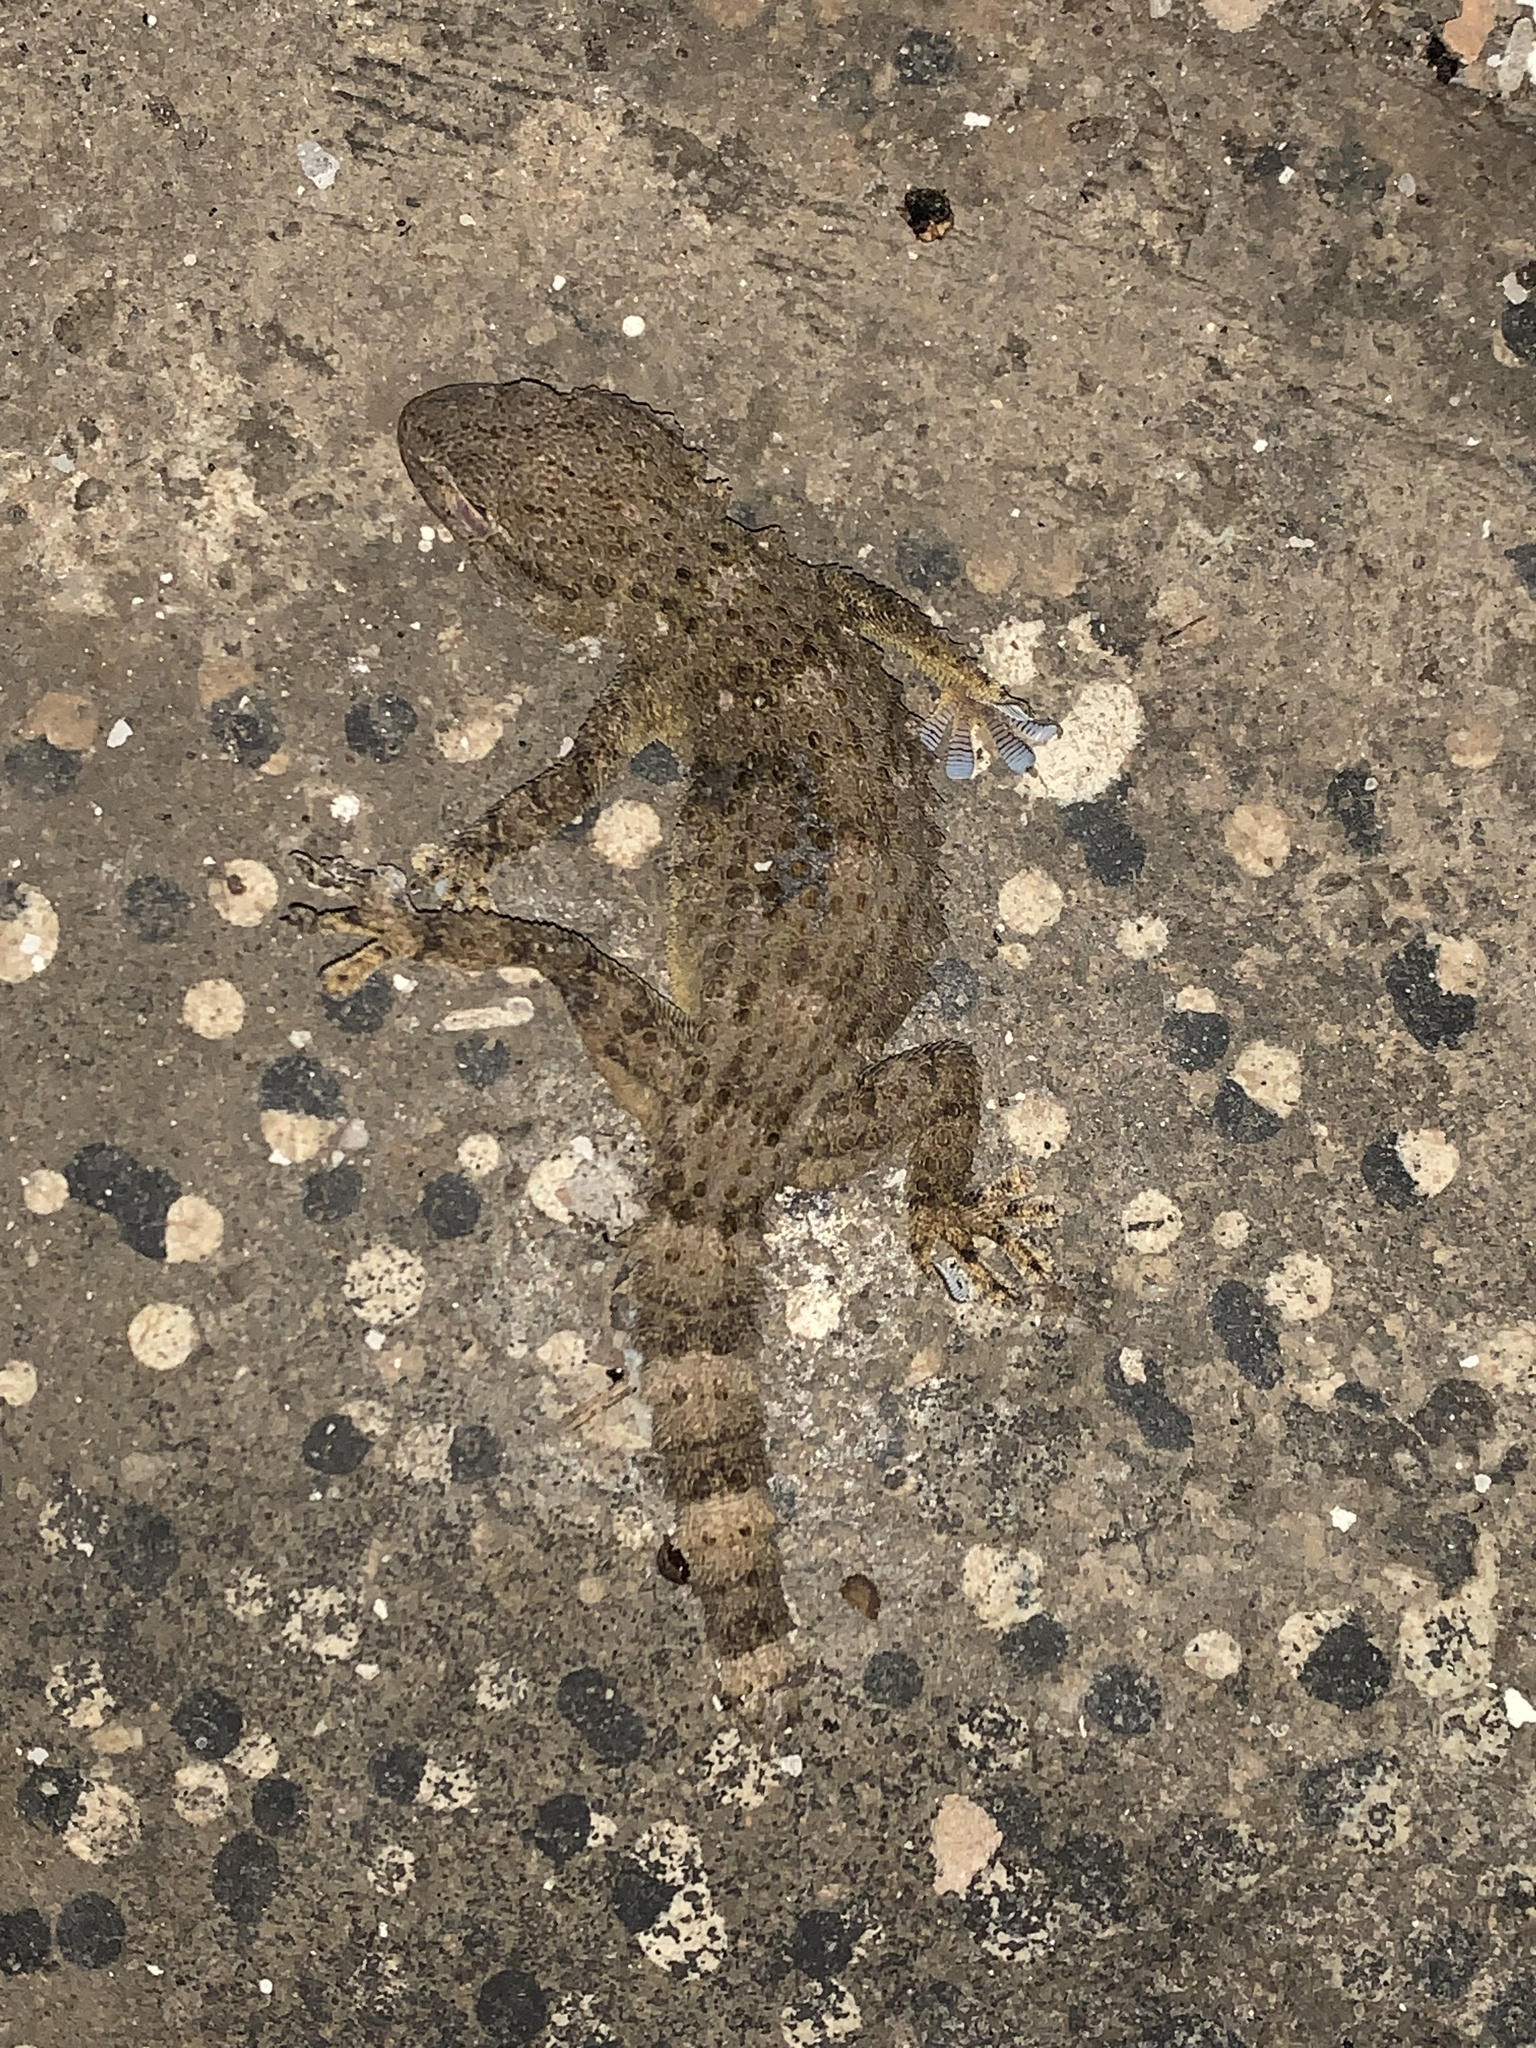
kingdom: Animalia
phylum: Chordata
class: Squamata
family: Phyllodactylidae
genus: Tarentola
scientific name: Tarentola mauritanica
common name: Moorish gecko
